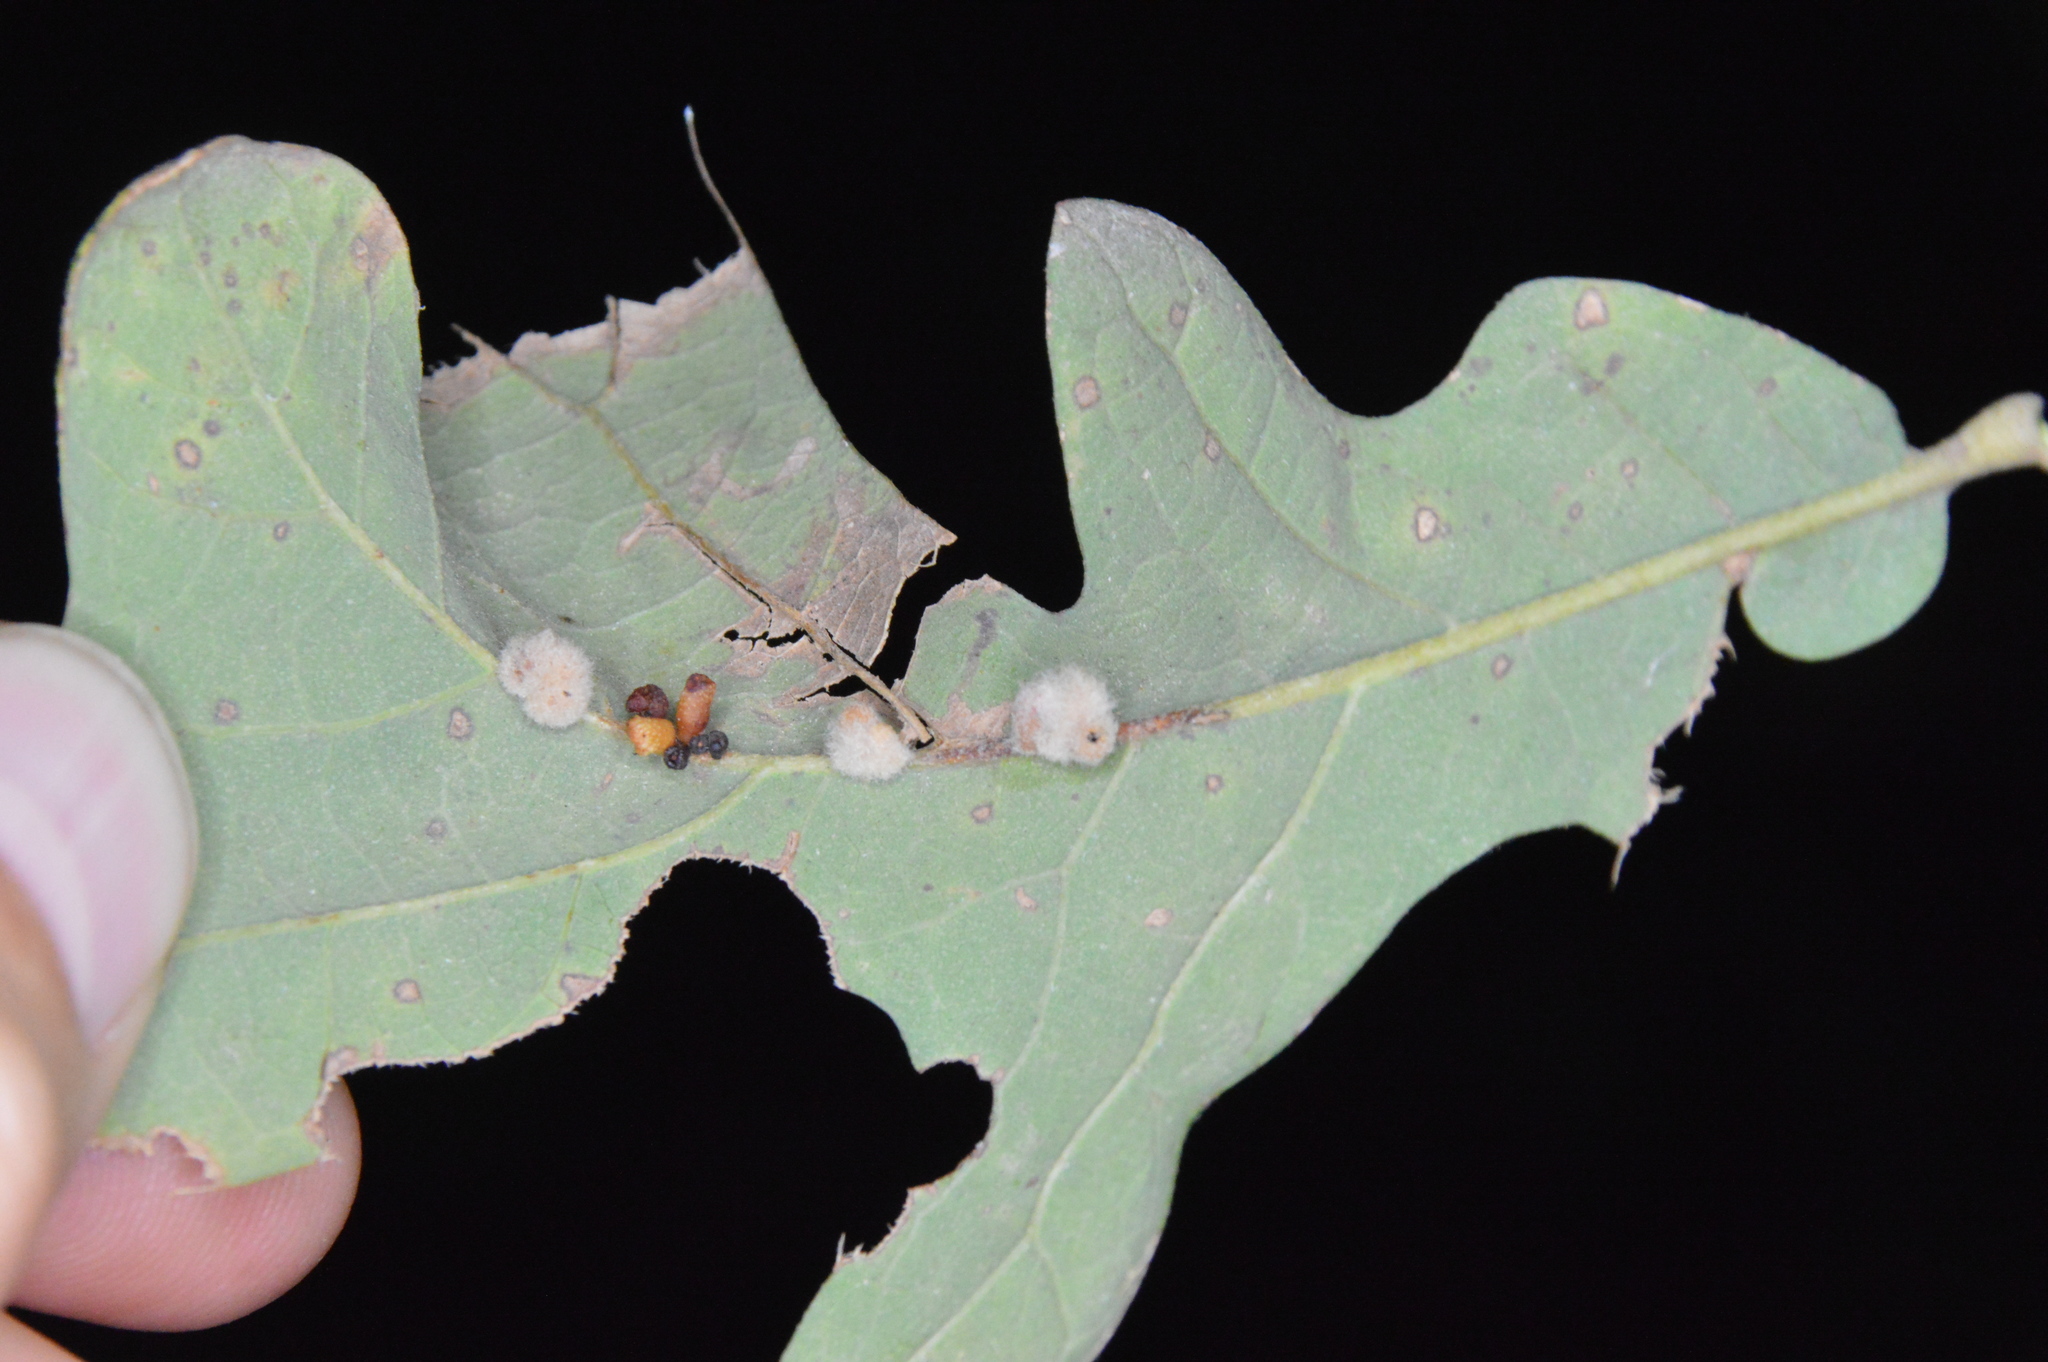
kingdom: Animalia
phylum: Arthropoda
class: Insecta
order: Hymenoptera
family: Cynipidae
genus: Andricus
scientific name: Andricus lustrans
